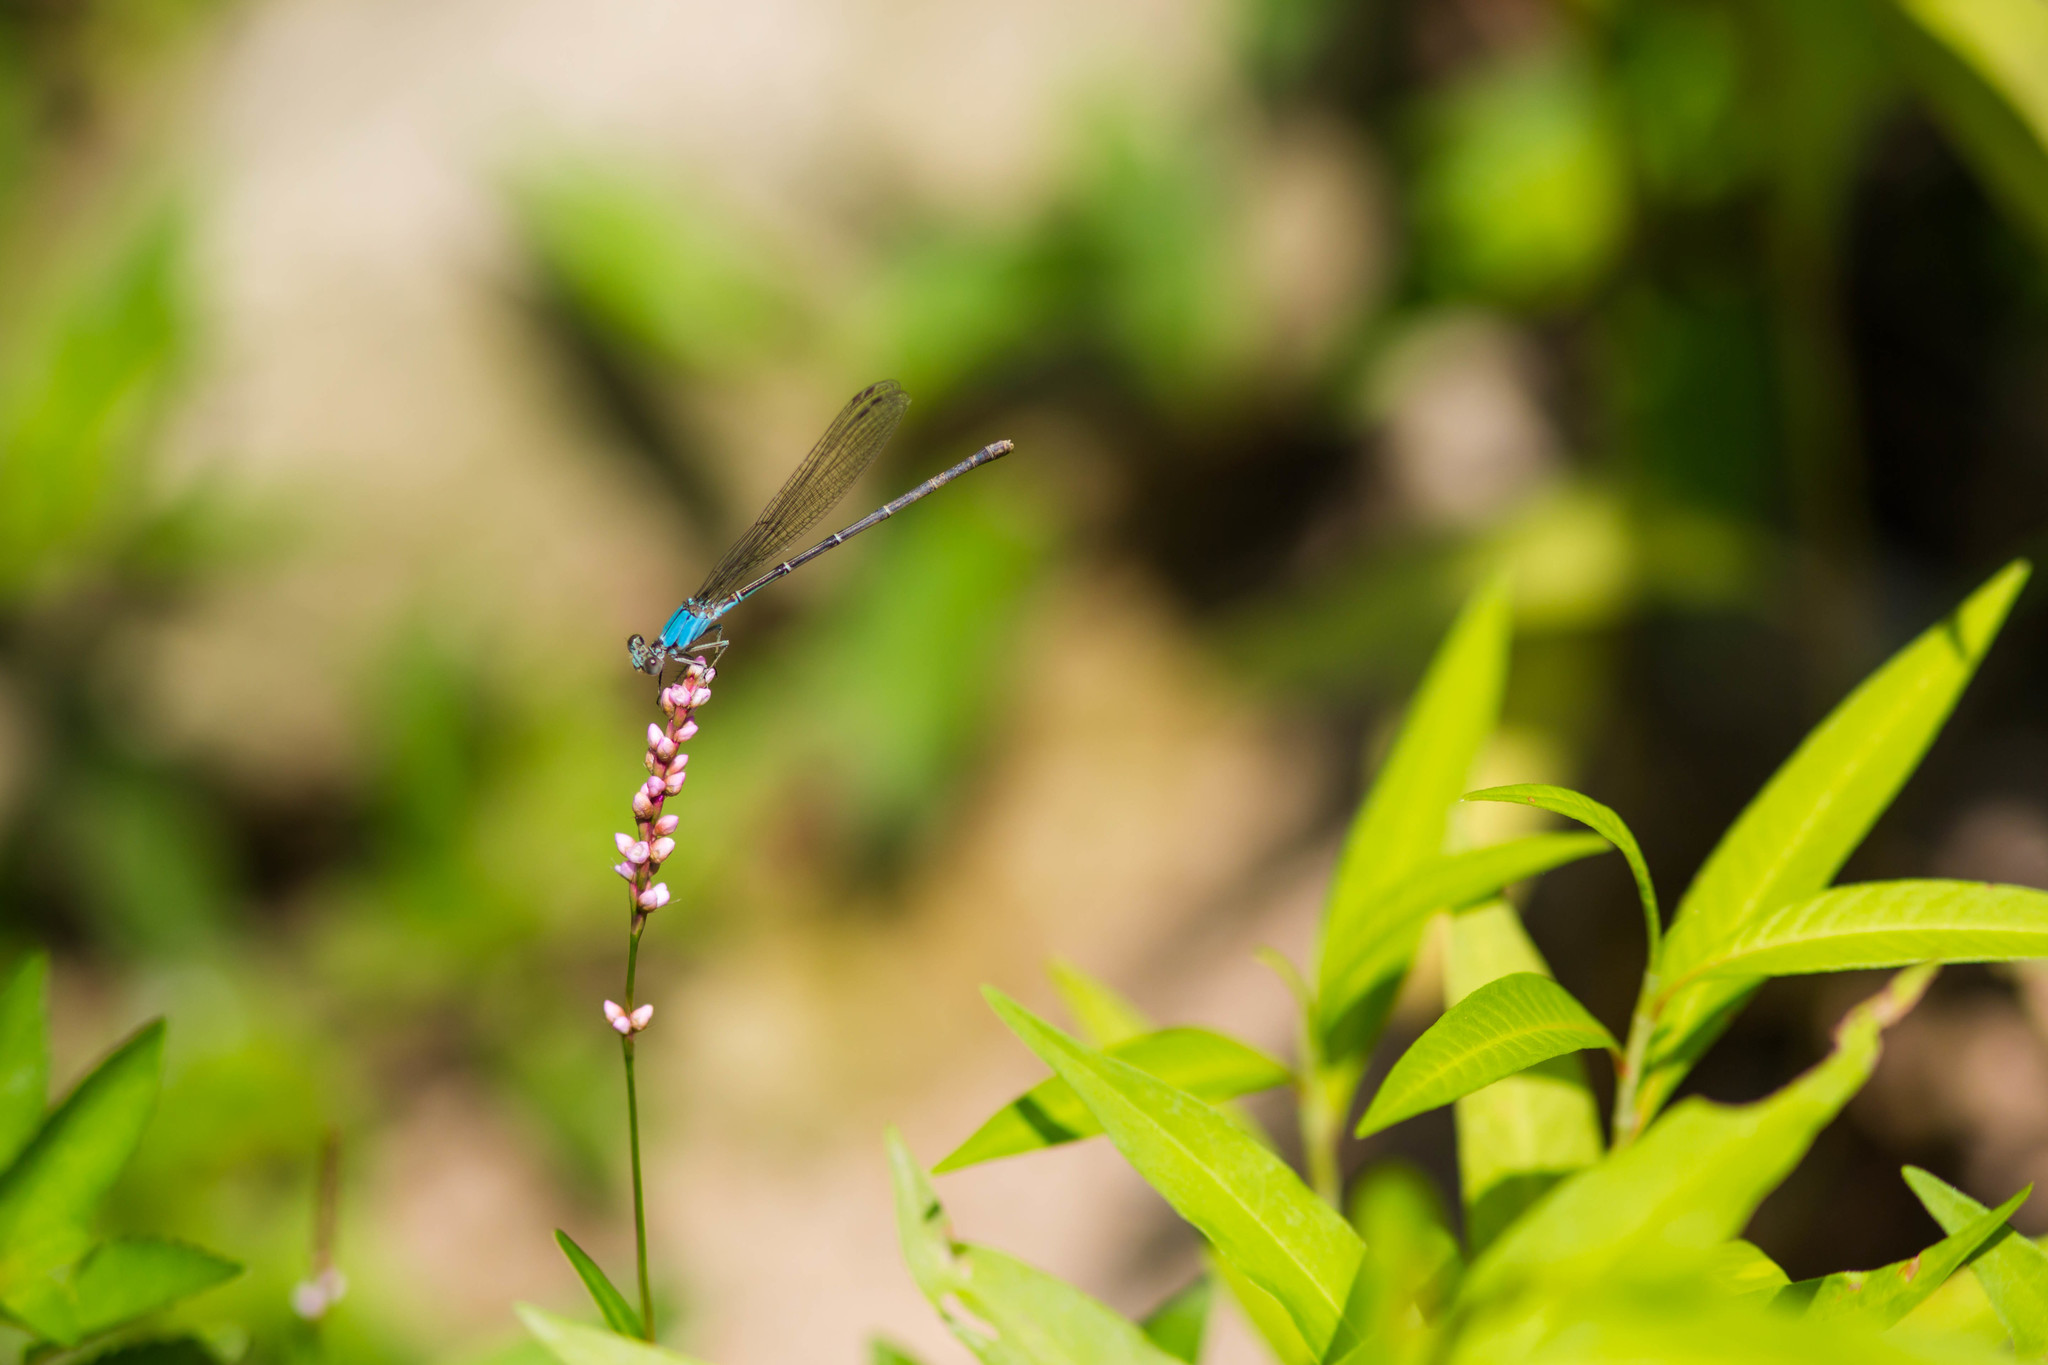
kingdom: Animalia
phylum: Arthropoda
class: Insecta
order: Odonata
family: Coenagrionidae
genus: Argia
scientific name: Argia apicalis
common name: Blue-fronted dancer
